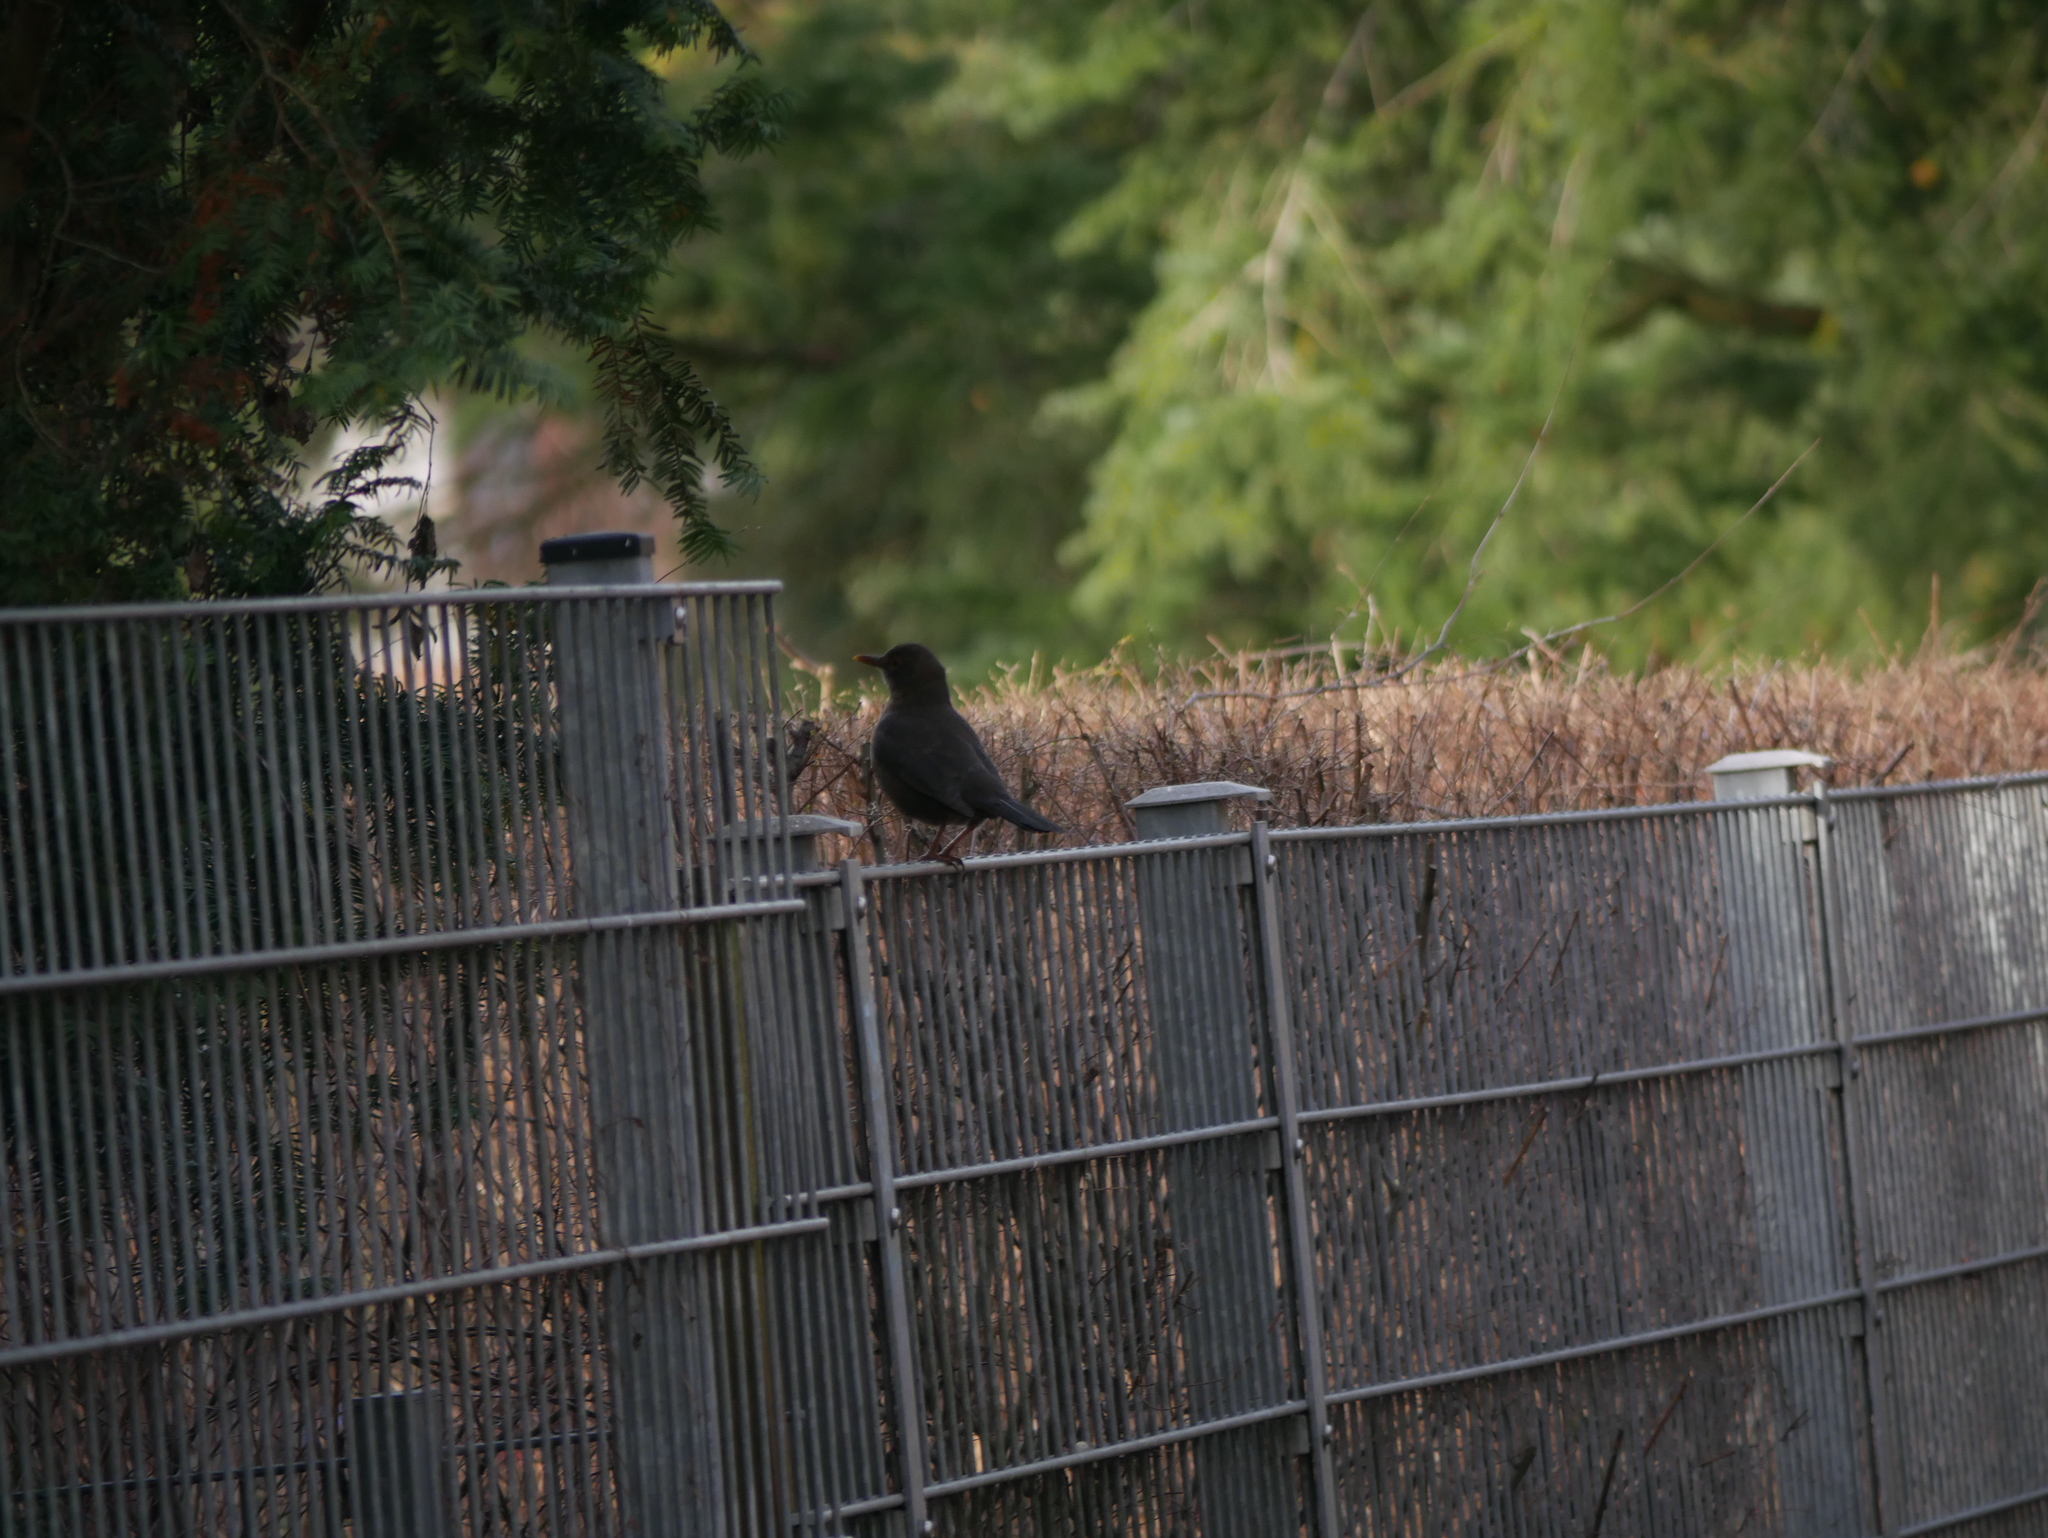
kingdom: Animalia
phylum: Chordata
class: Aves
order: Passeriformes
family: Turdidae
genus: Turdus
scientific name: Turdus merula
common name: Common blackbird
